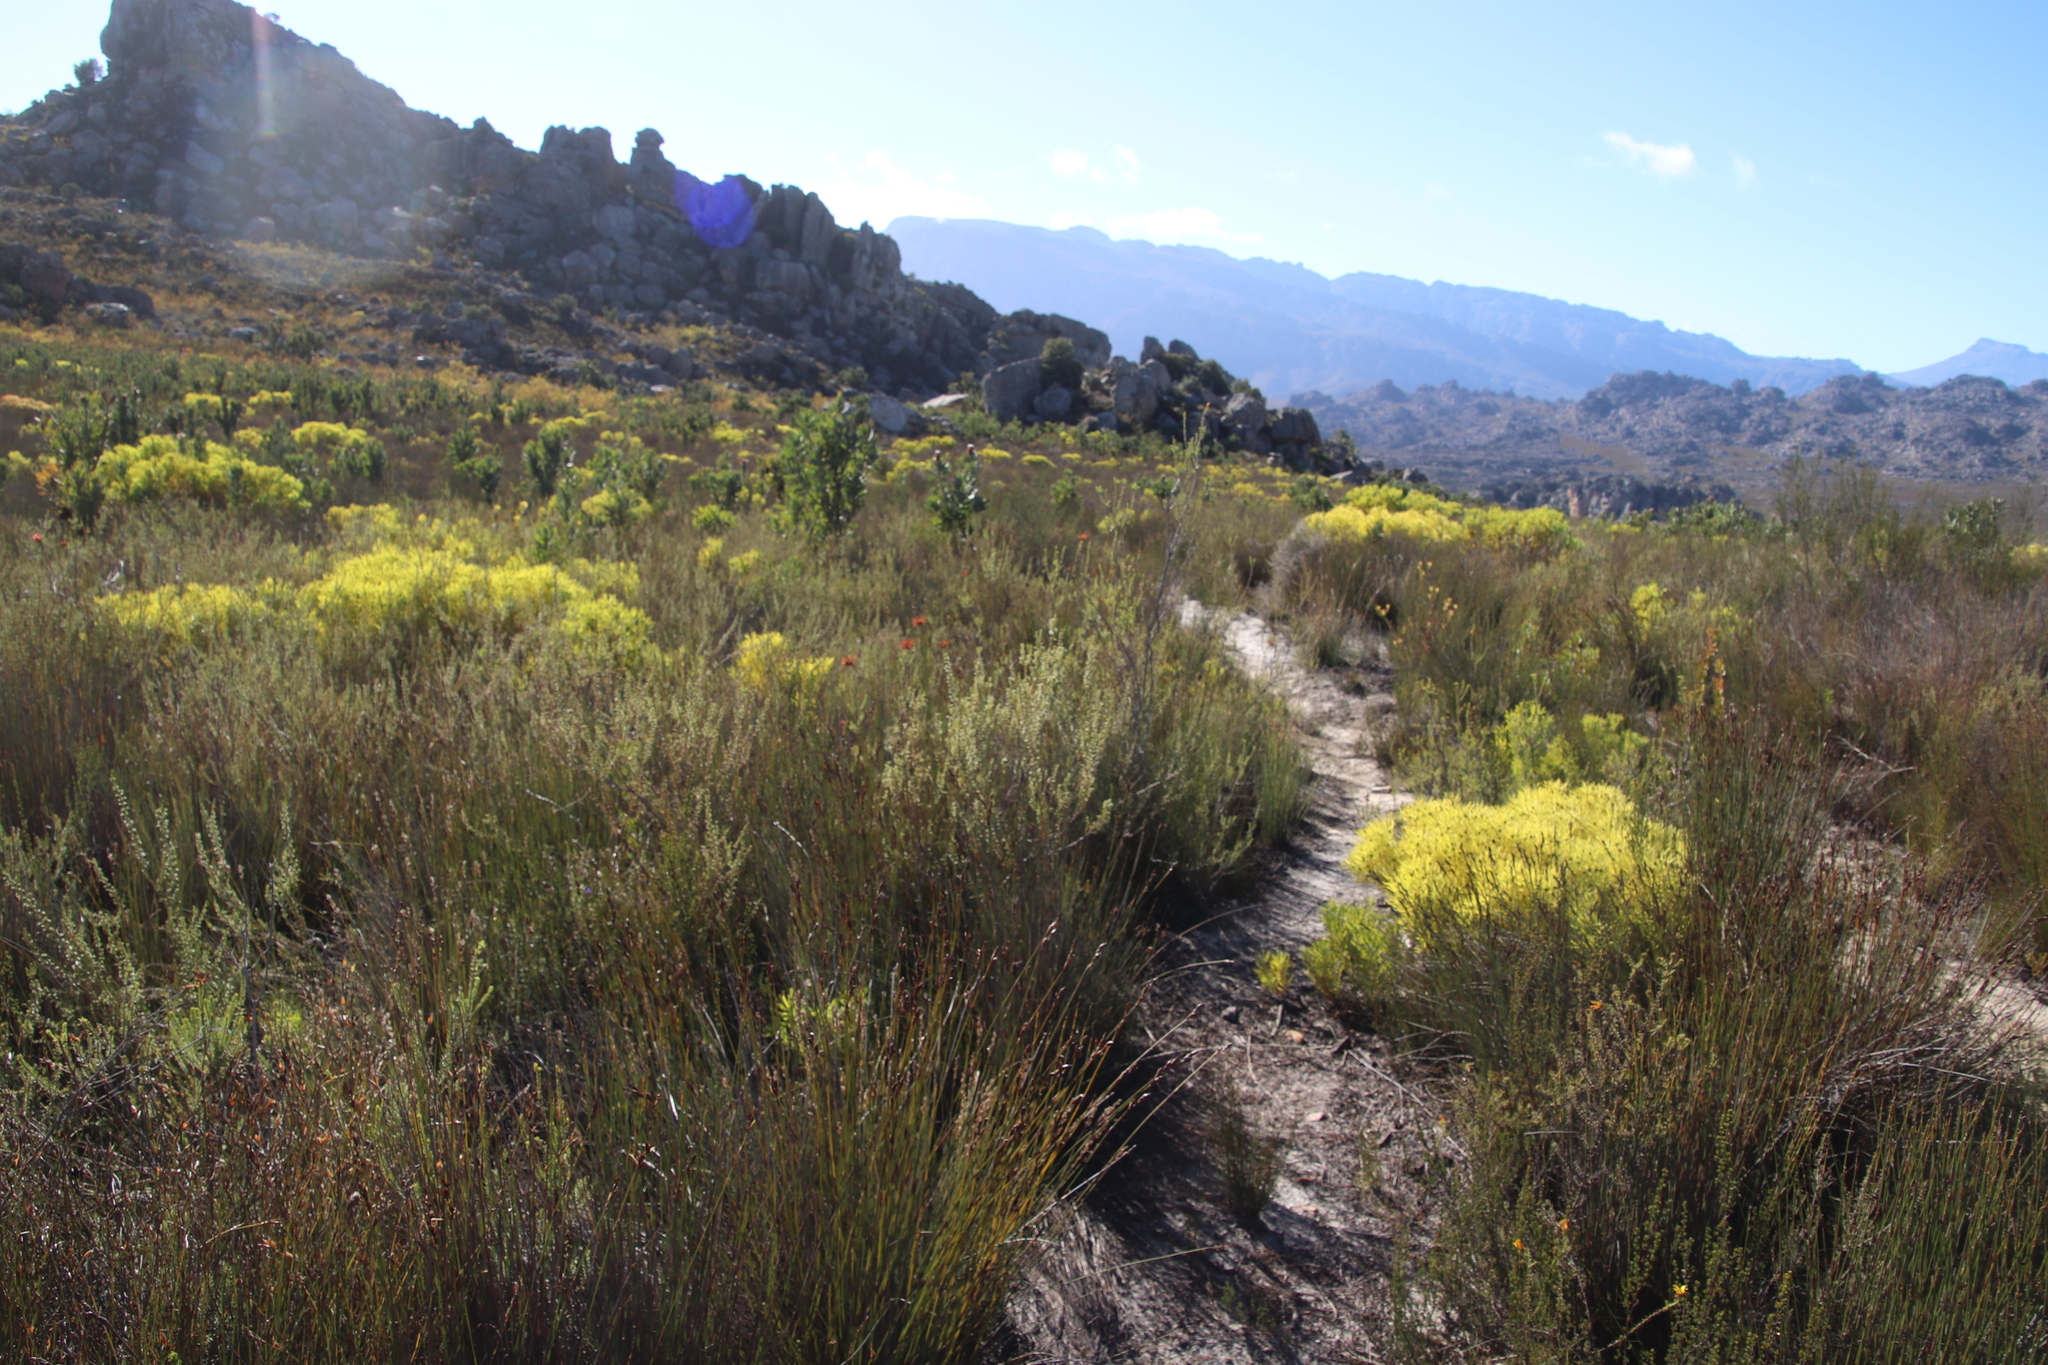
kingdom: Plantae
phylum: Tracheophyta
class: Magnoliopsida
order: Ericales
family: Ericaceae
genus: Erica
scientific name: Erica mammosa
